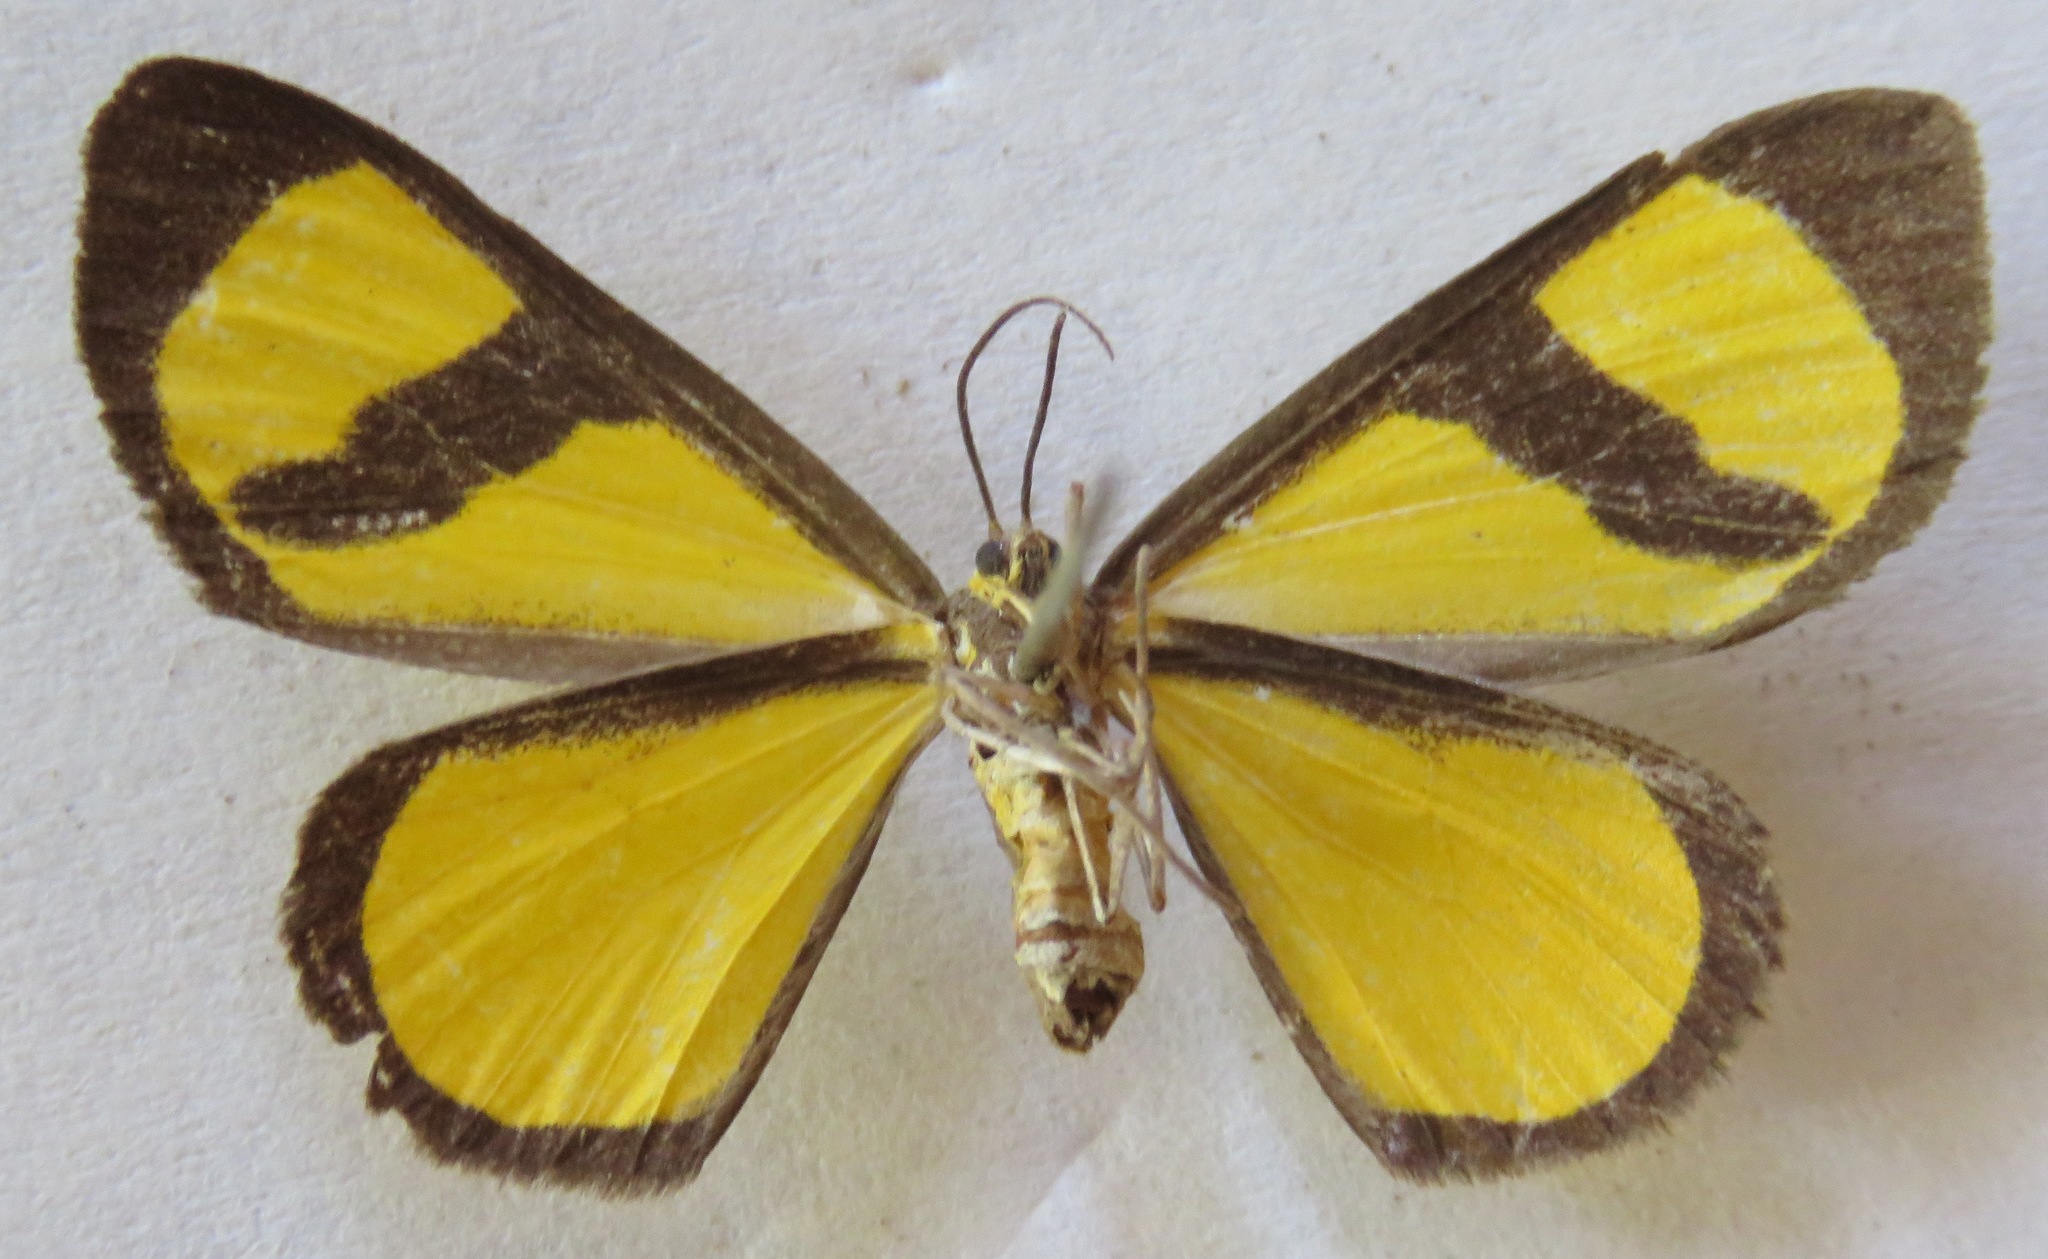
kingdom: Animalia
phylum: Arthropoda
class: Insecta
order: Lepidoptera
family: Geometridae
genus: Smicropus
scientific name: Smicropus laeta
